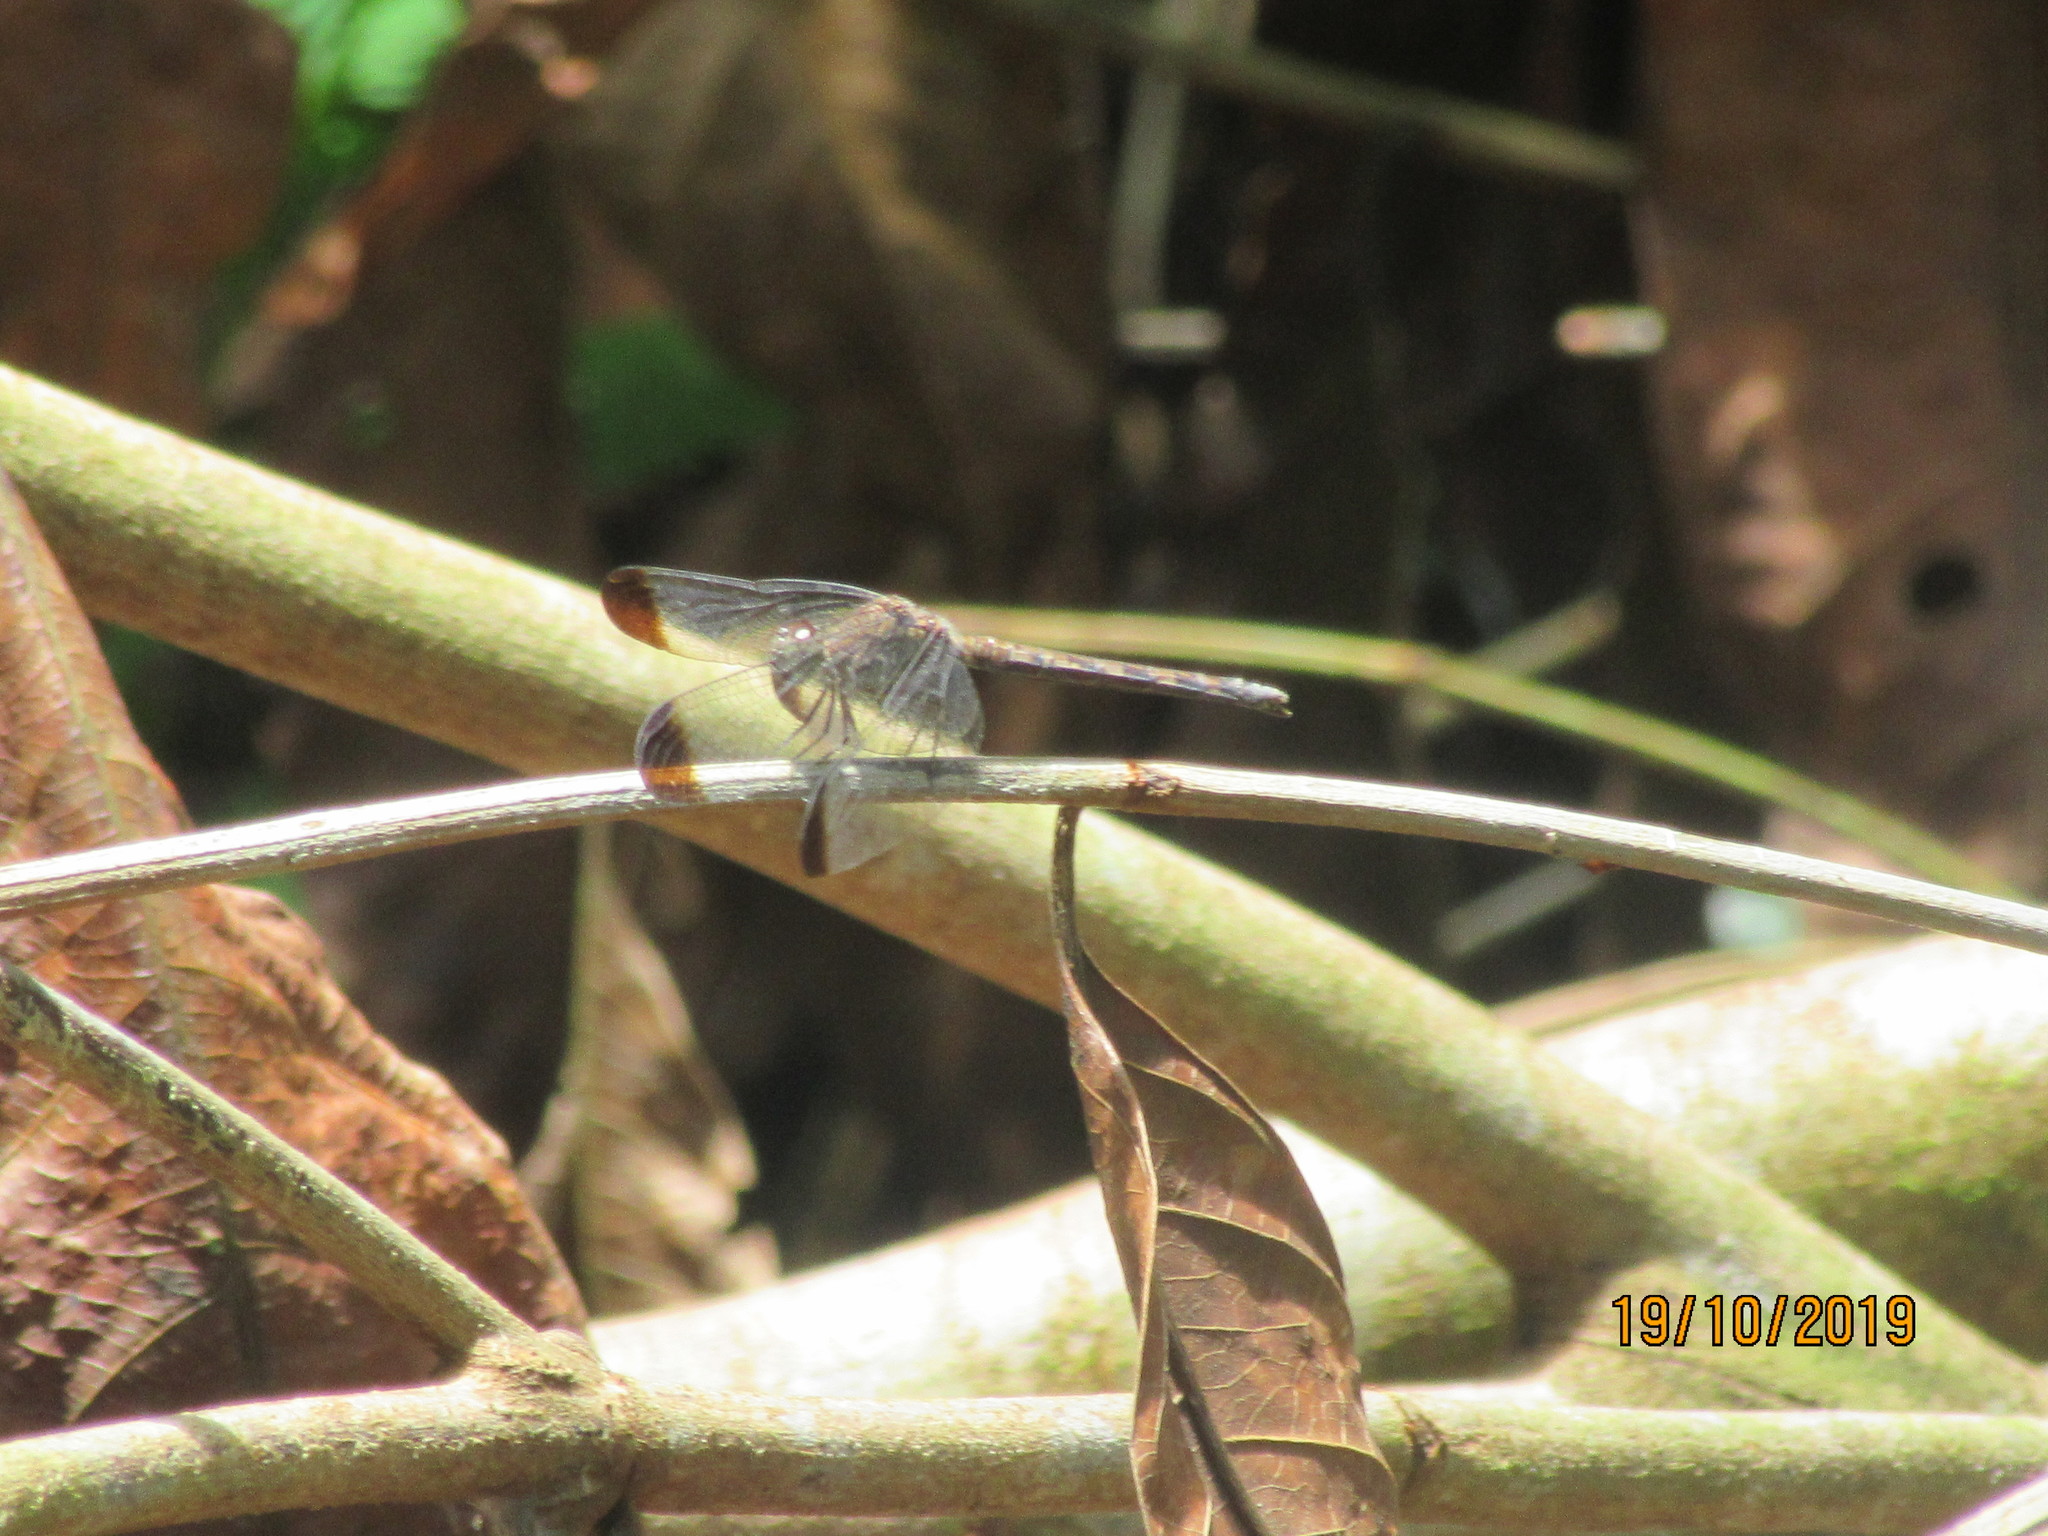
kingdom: Animalia
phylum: Arthropoda
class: Insecta
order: Odonata
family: Libellulidae
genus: Uracis
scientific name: Uracis imbuta
